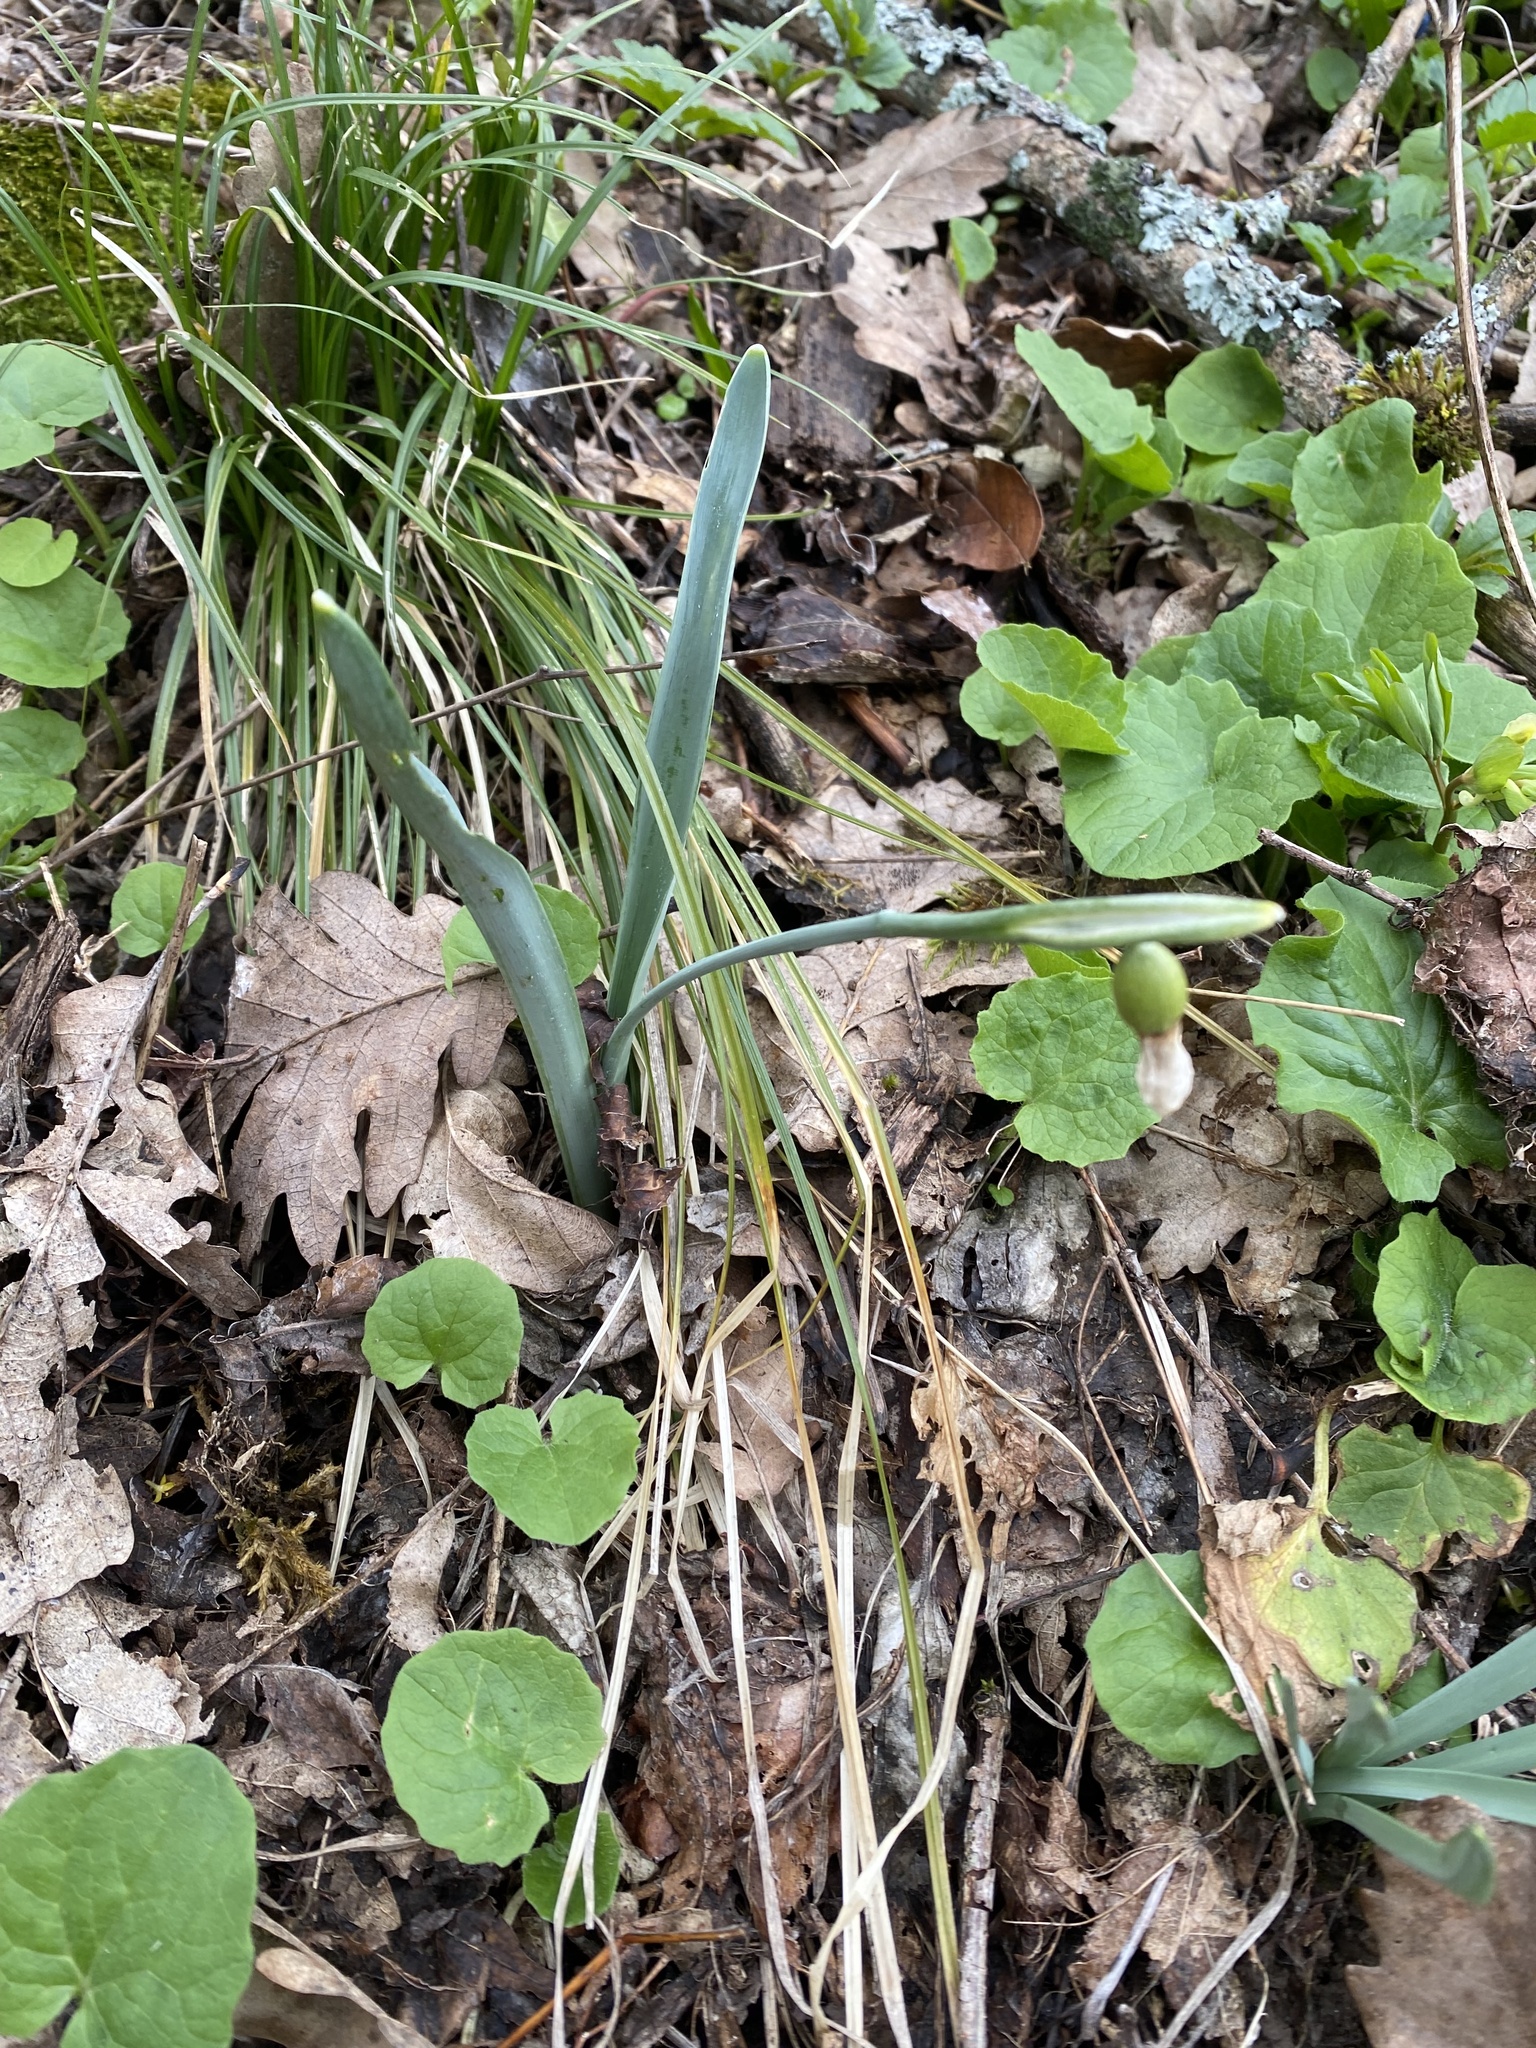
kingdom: Plantae
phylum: Tracheophyta
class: Liliopsida
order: Asparagales
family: Amaryllidaceae
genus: Galanthus
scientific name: Galanthus alpinus
